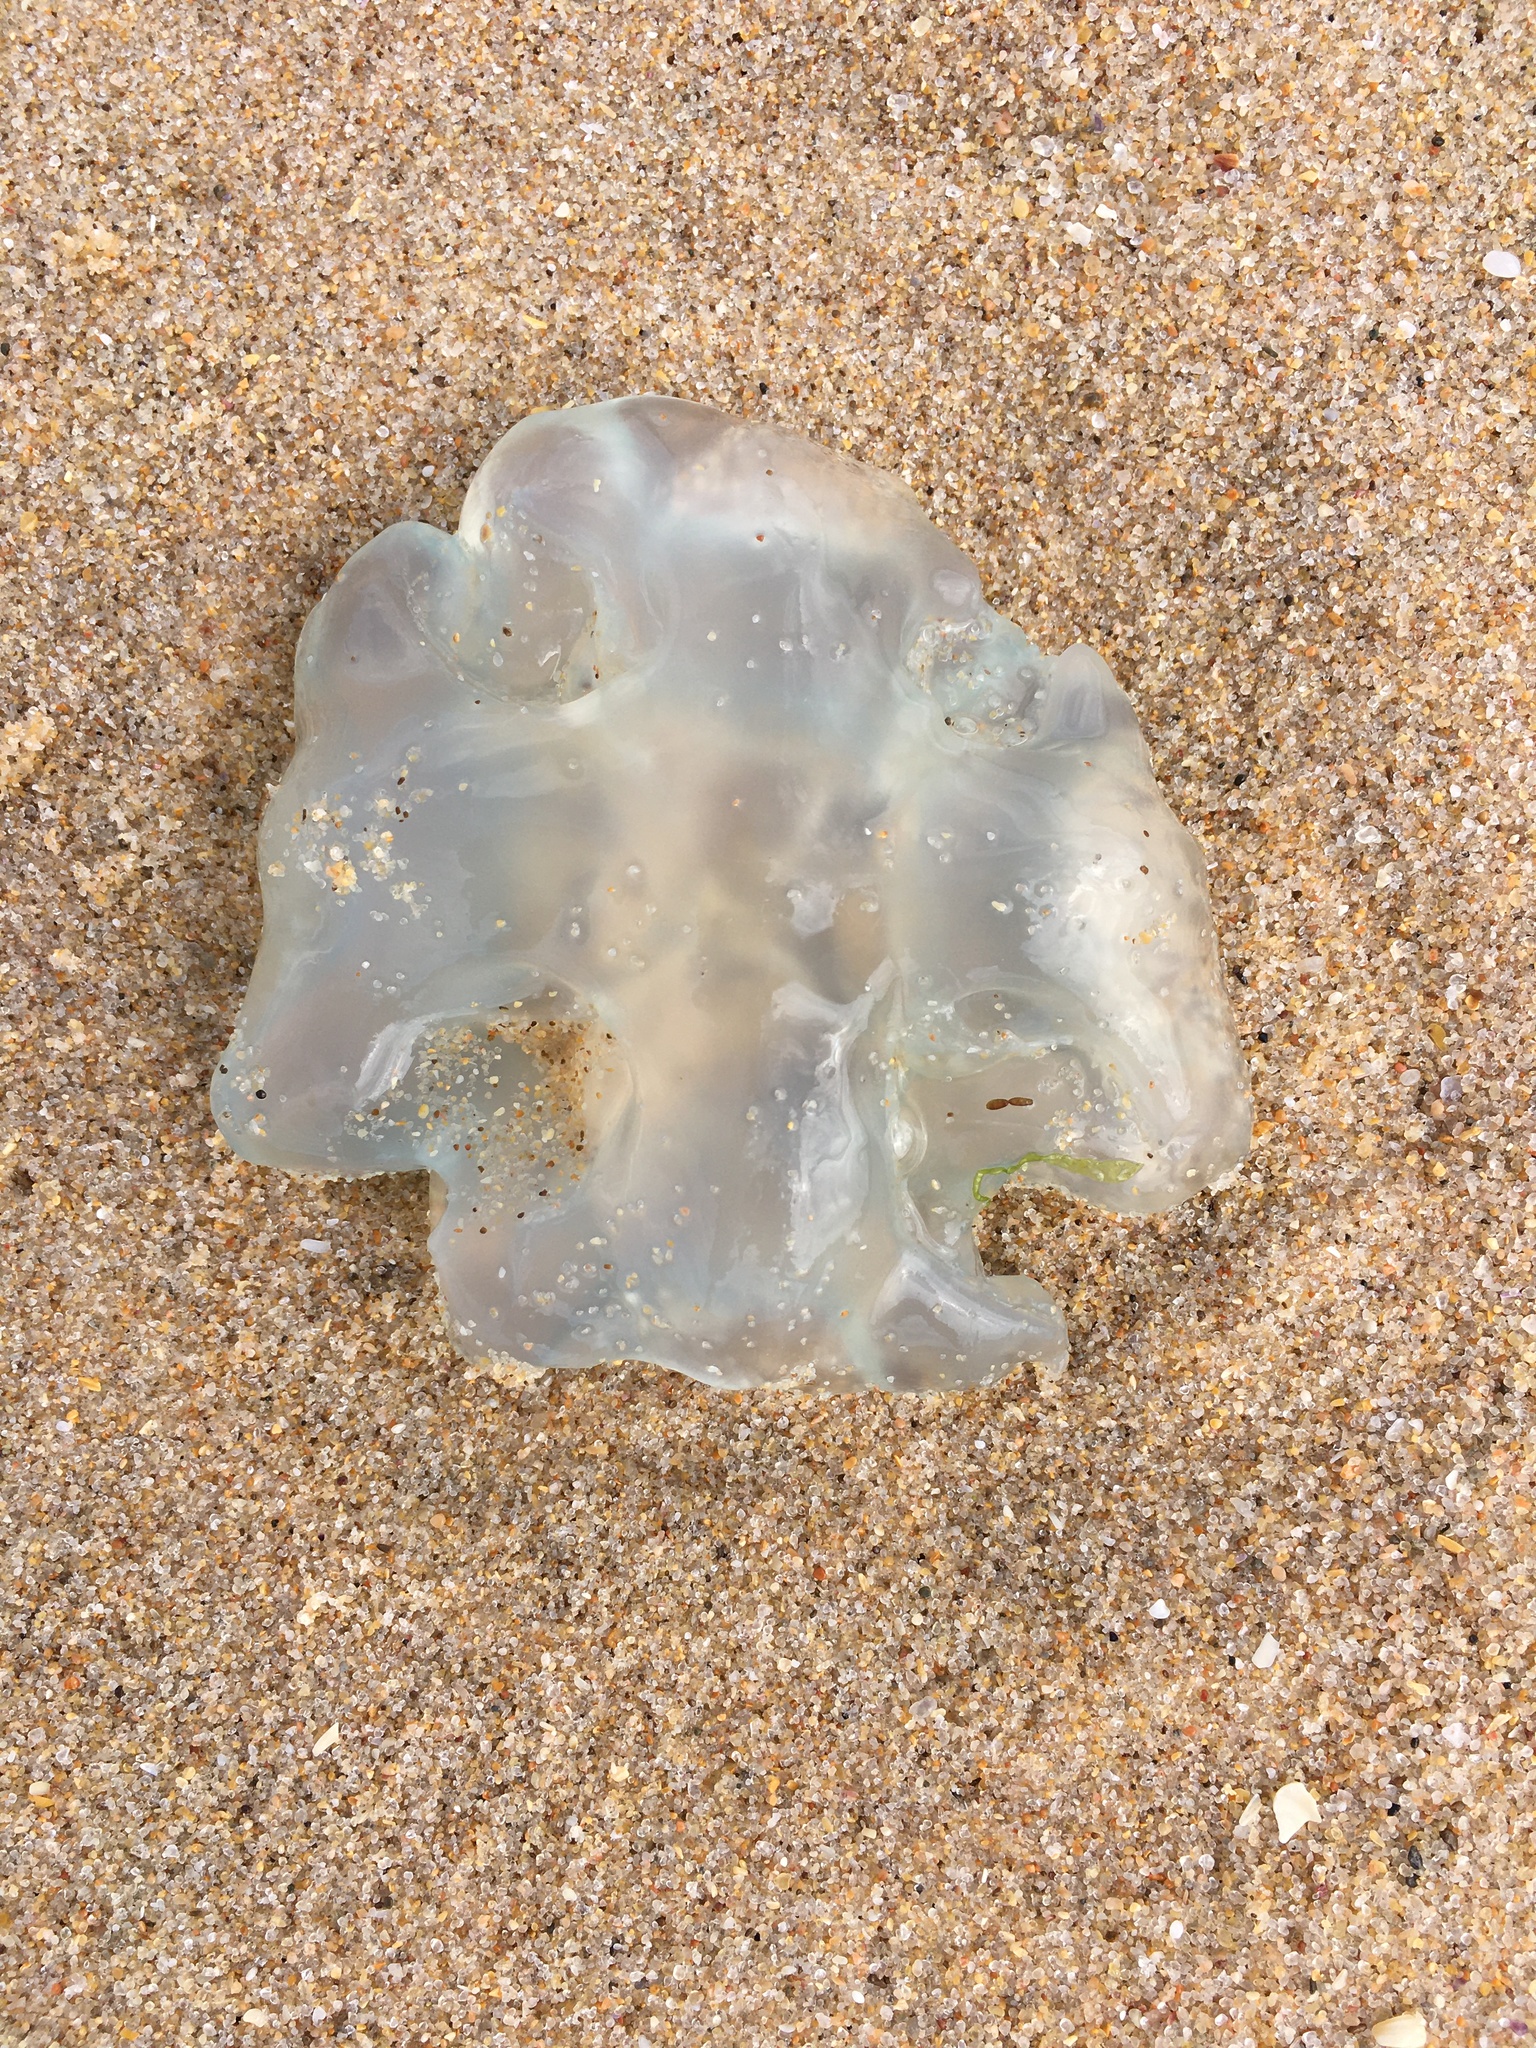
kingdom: Animalia
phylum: Cnidaria
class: Scyphozoa
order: Rhizostomeae
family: Catostylidae
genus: Catostylus
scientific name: Catostylus tagi
